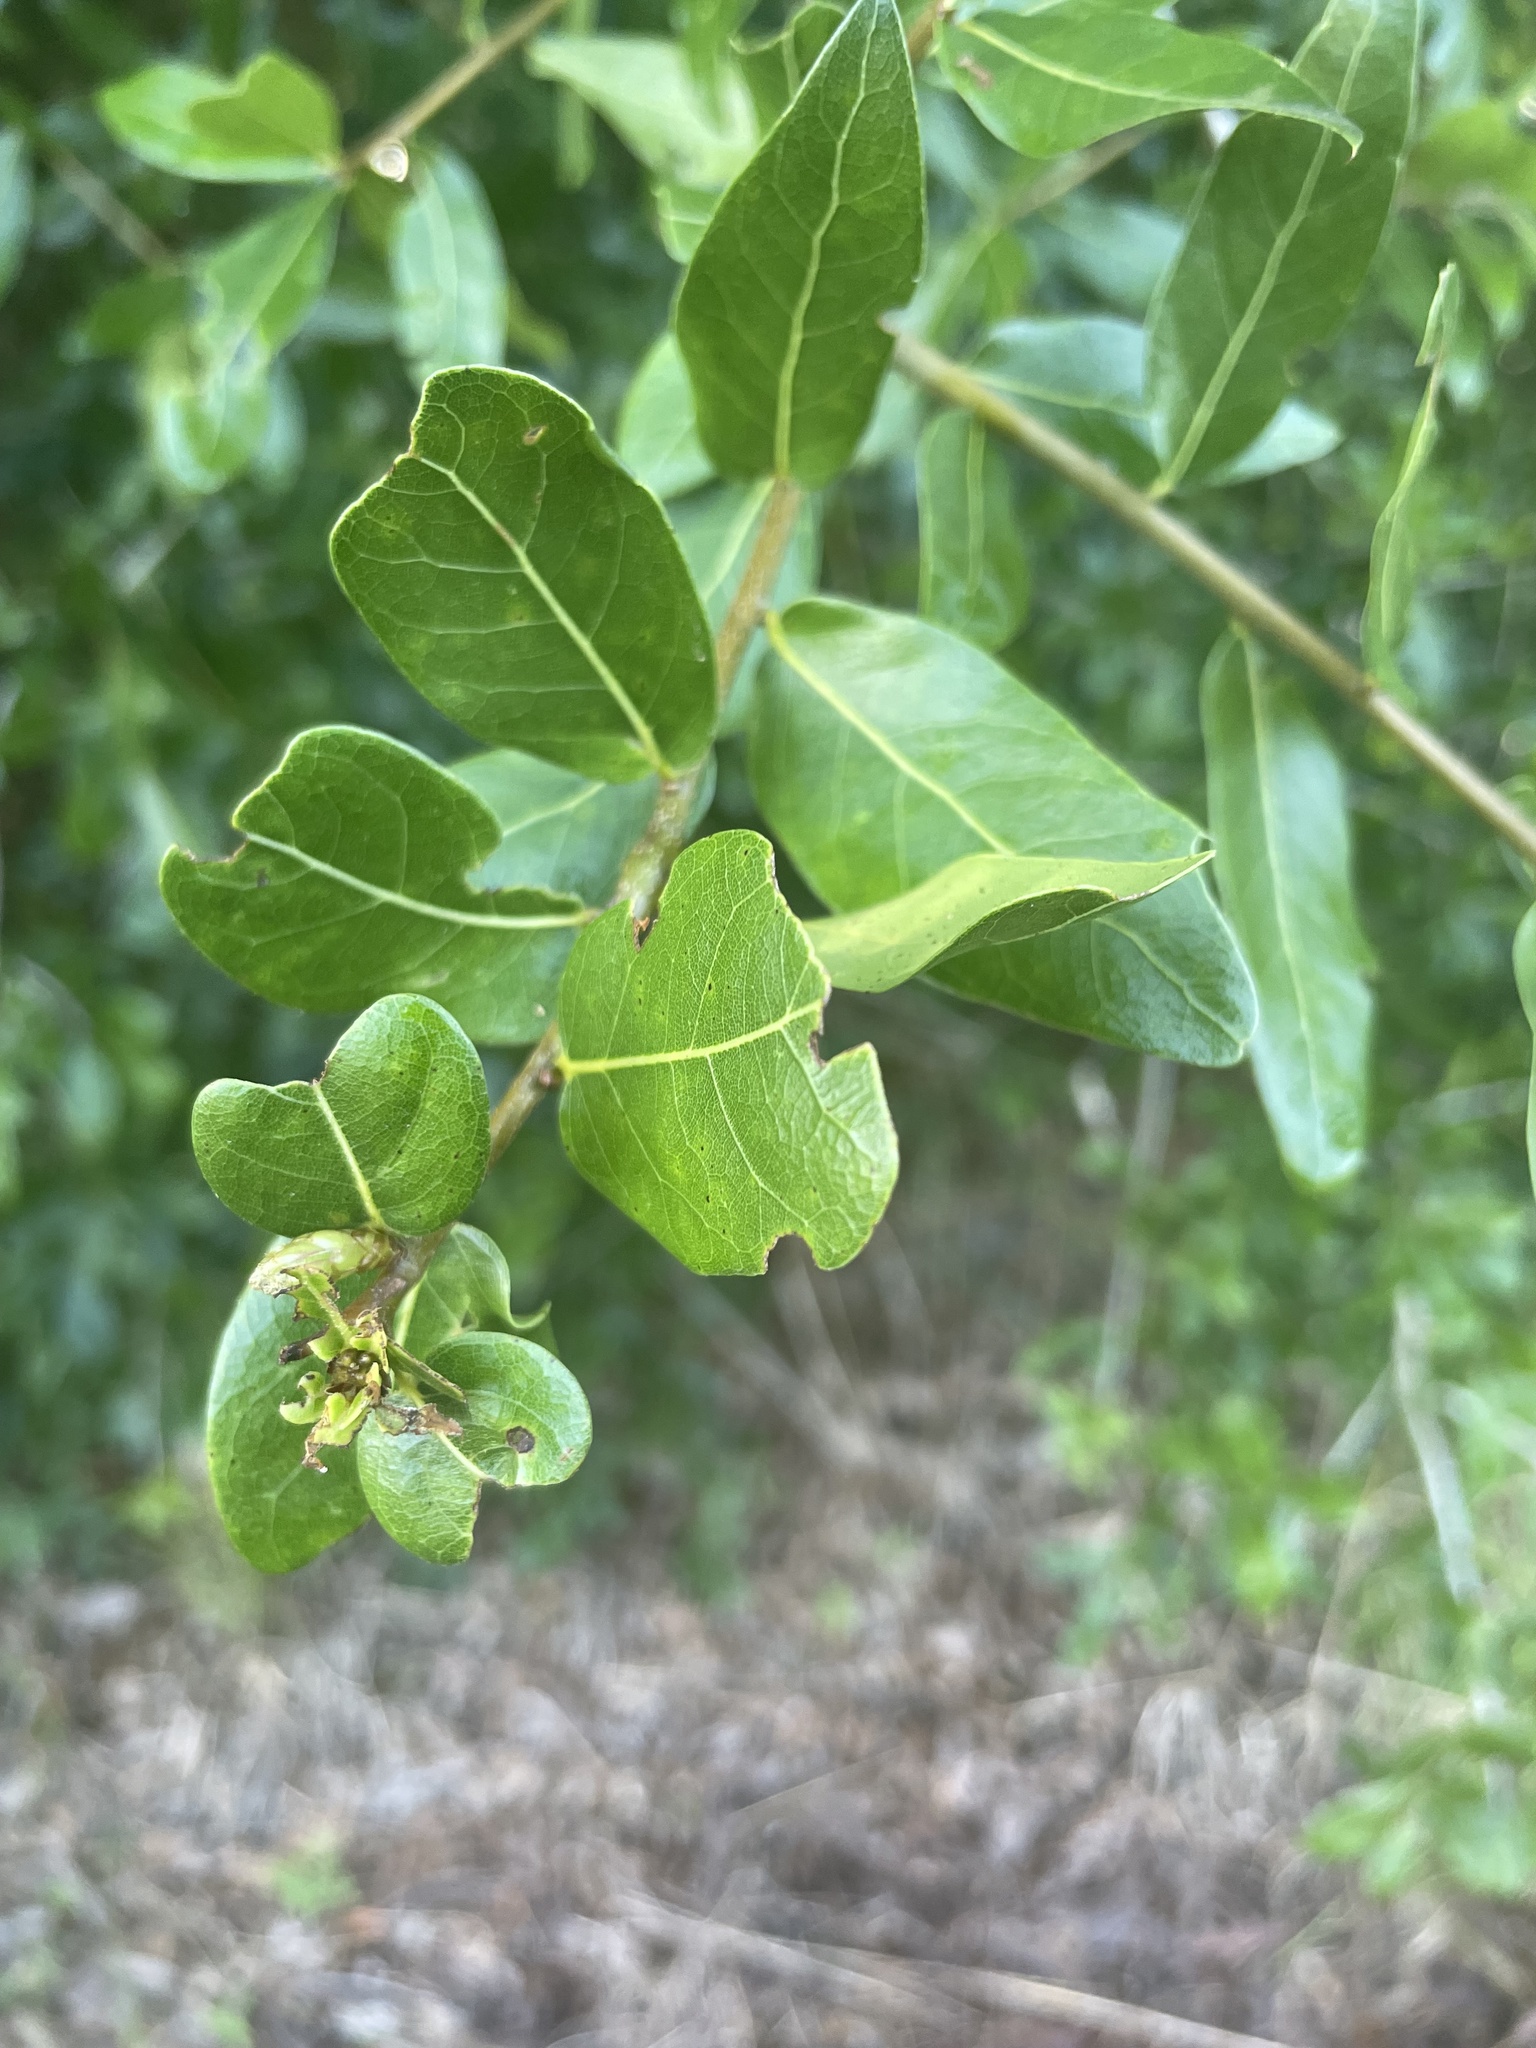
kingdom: Plantae
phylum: Tracheophyta
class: Magnoliopsida
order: Fagales
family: Fagaceae
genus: Quercus
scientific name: Quercus incana
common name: Bluejack oak
